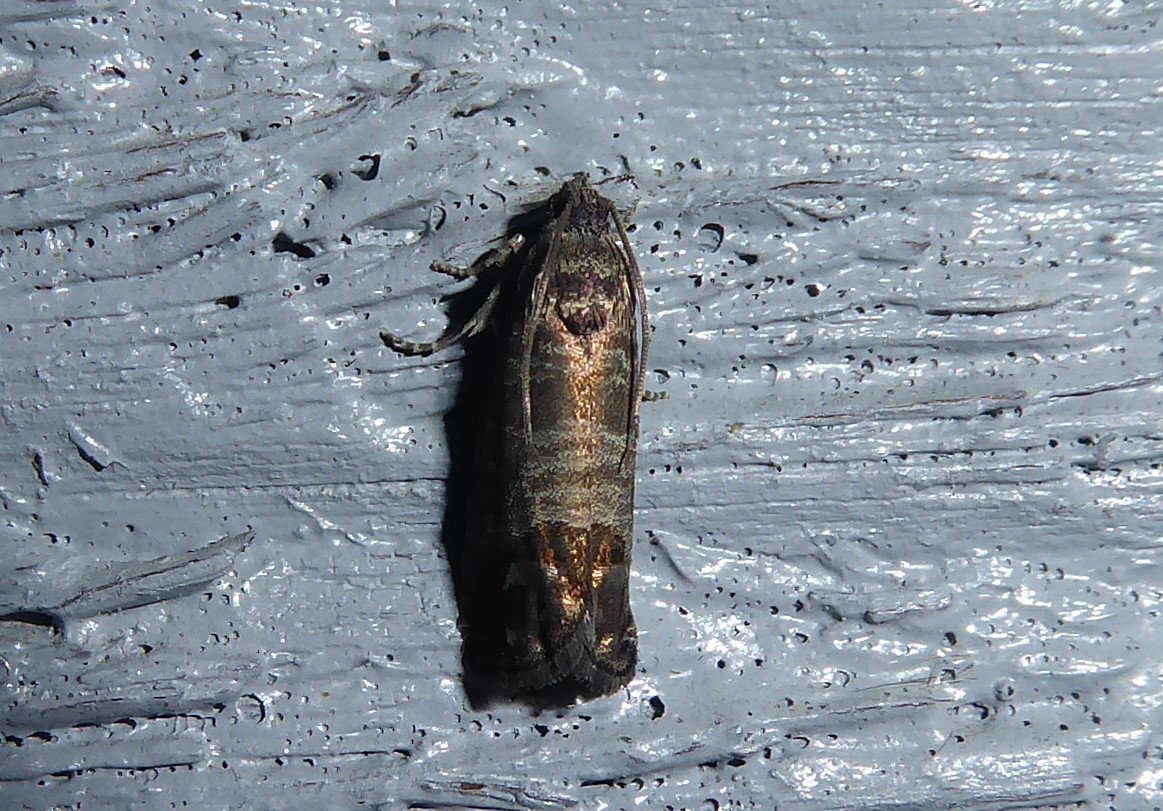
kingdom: Animalia
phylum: Arthropoda
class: Insecta
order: Lepidoptera
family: Tortricidae
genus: Cydia
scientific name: Cydia pomonella
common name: Codling moth
